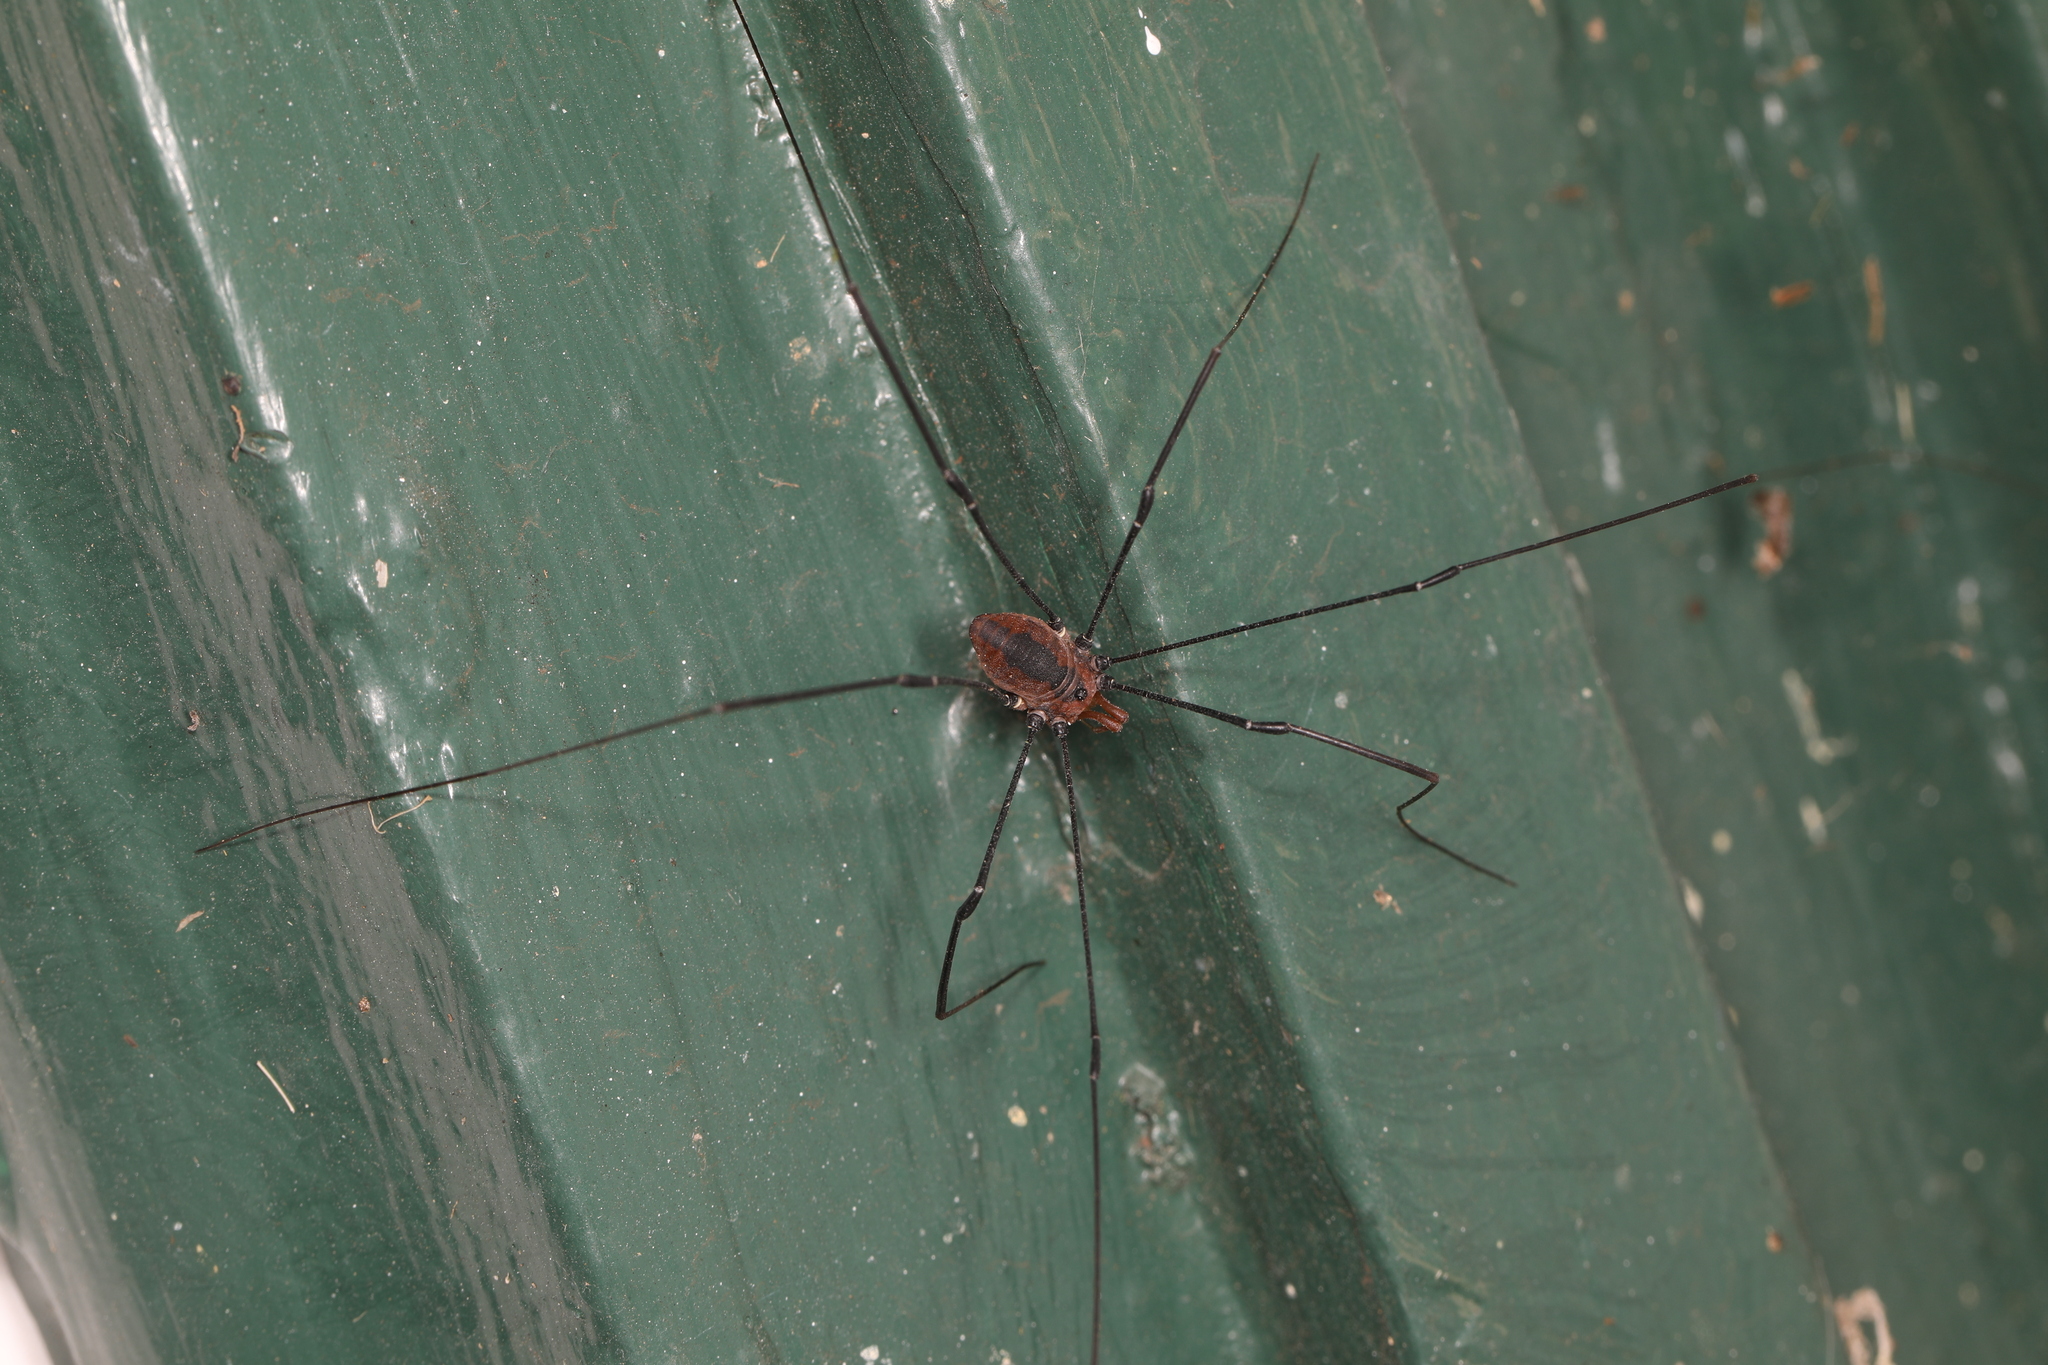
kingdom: Animalia
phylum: Arthropoda
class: Arachnida
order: Opiliones
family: Sclerosomatidae
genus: Leiobunum
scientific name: Leiobunum vittatum
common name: Eastern harvestman
